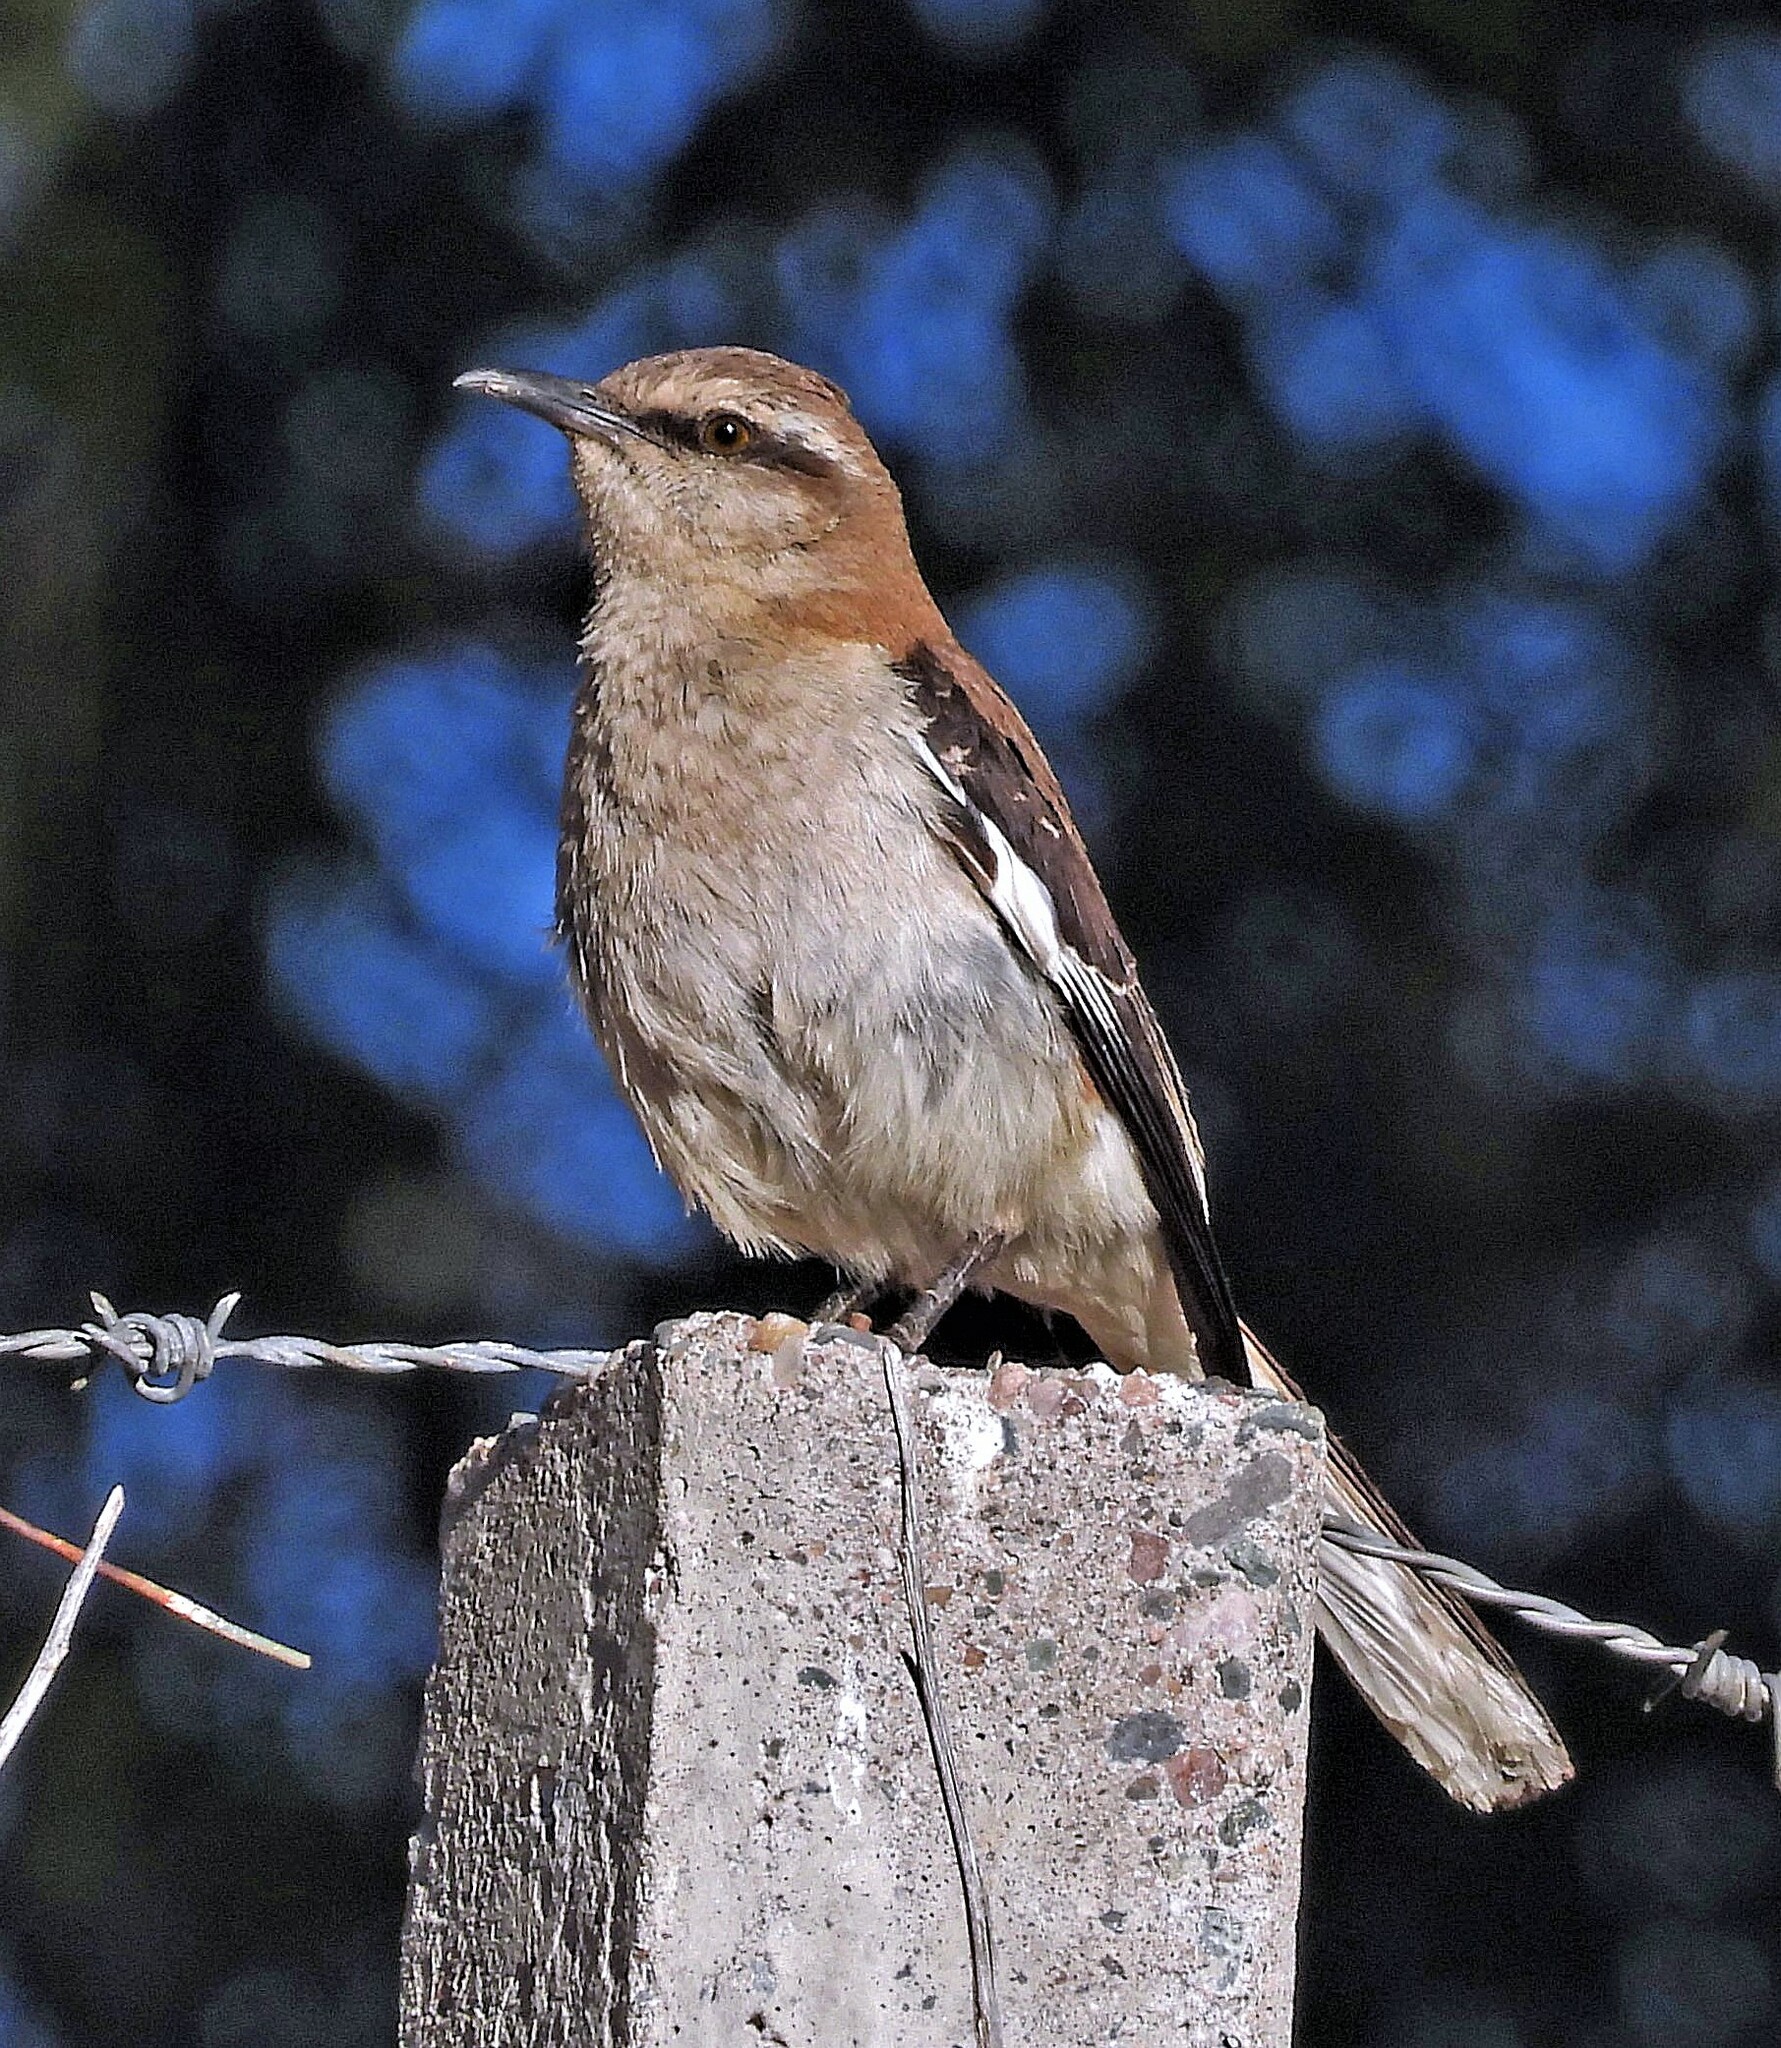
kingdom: Animalia
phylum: Chordata
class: Aves
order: Passeriformes
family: Mimidae
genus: Mimus
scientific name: Mimus dorsalis
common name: Brown-backed mockingbird
